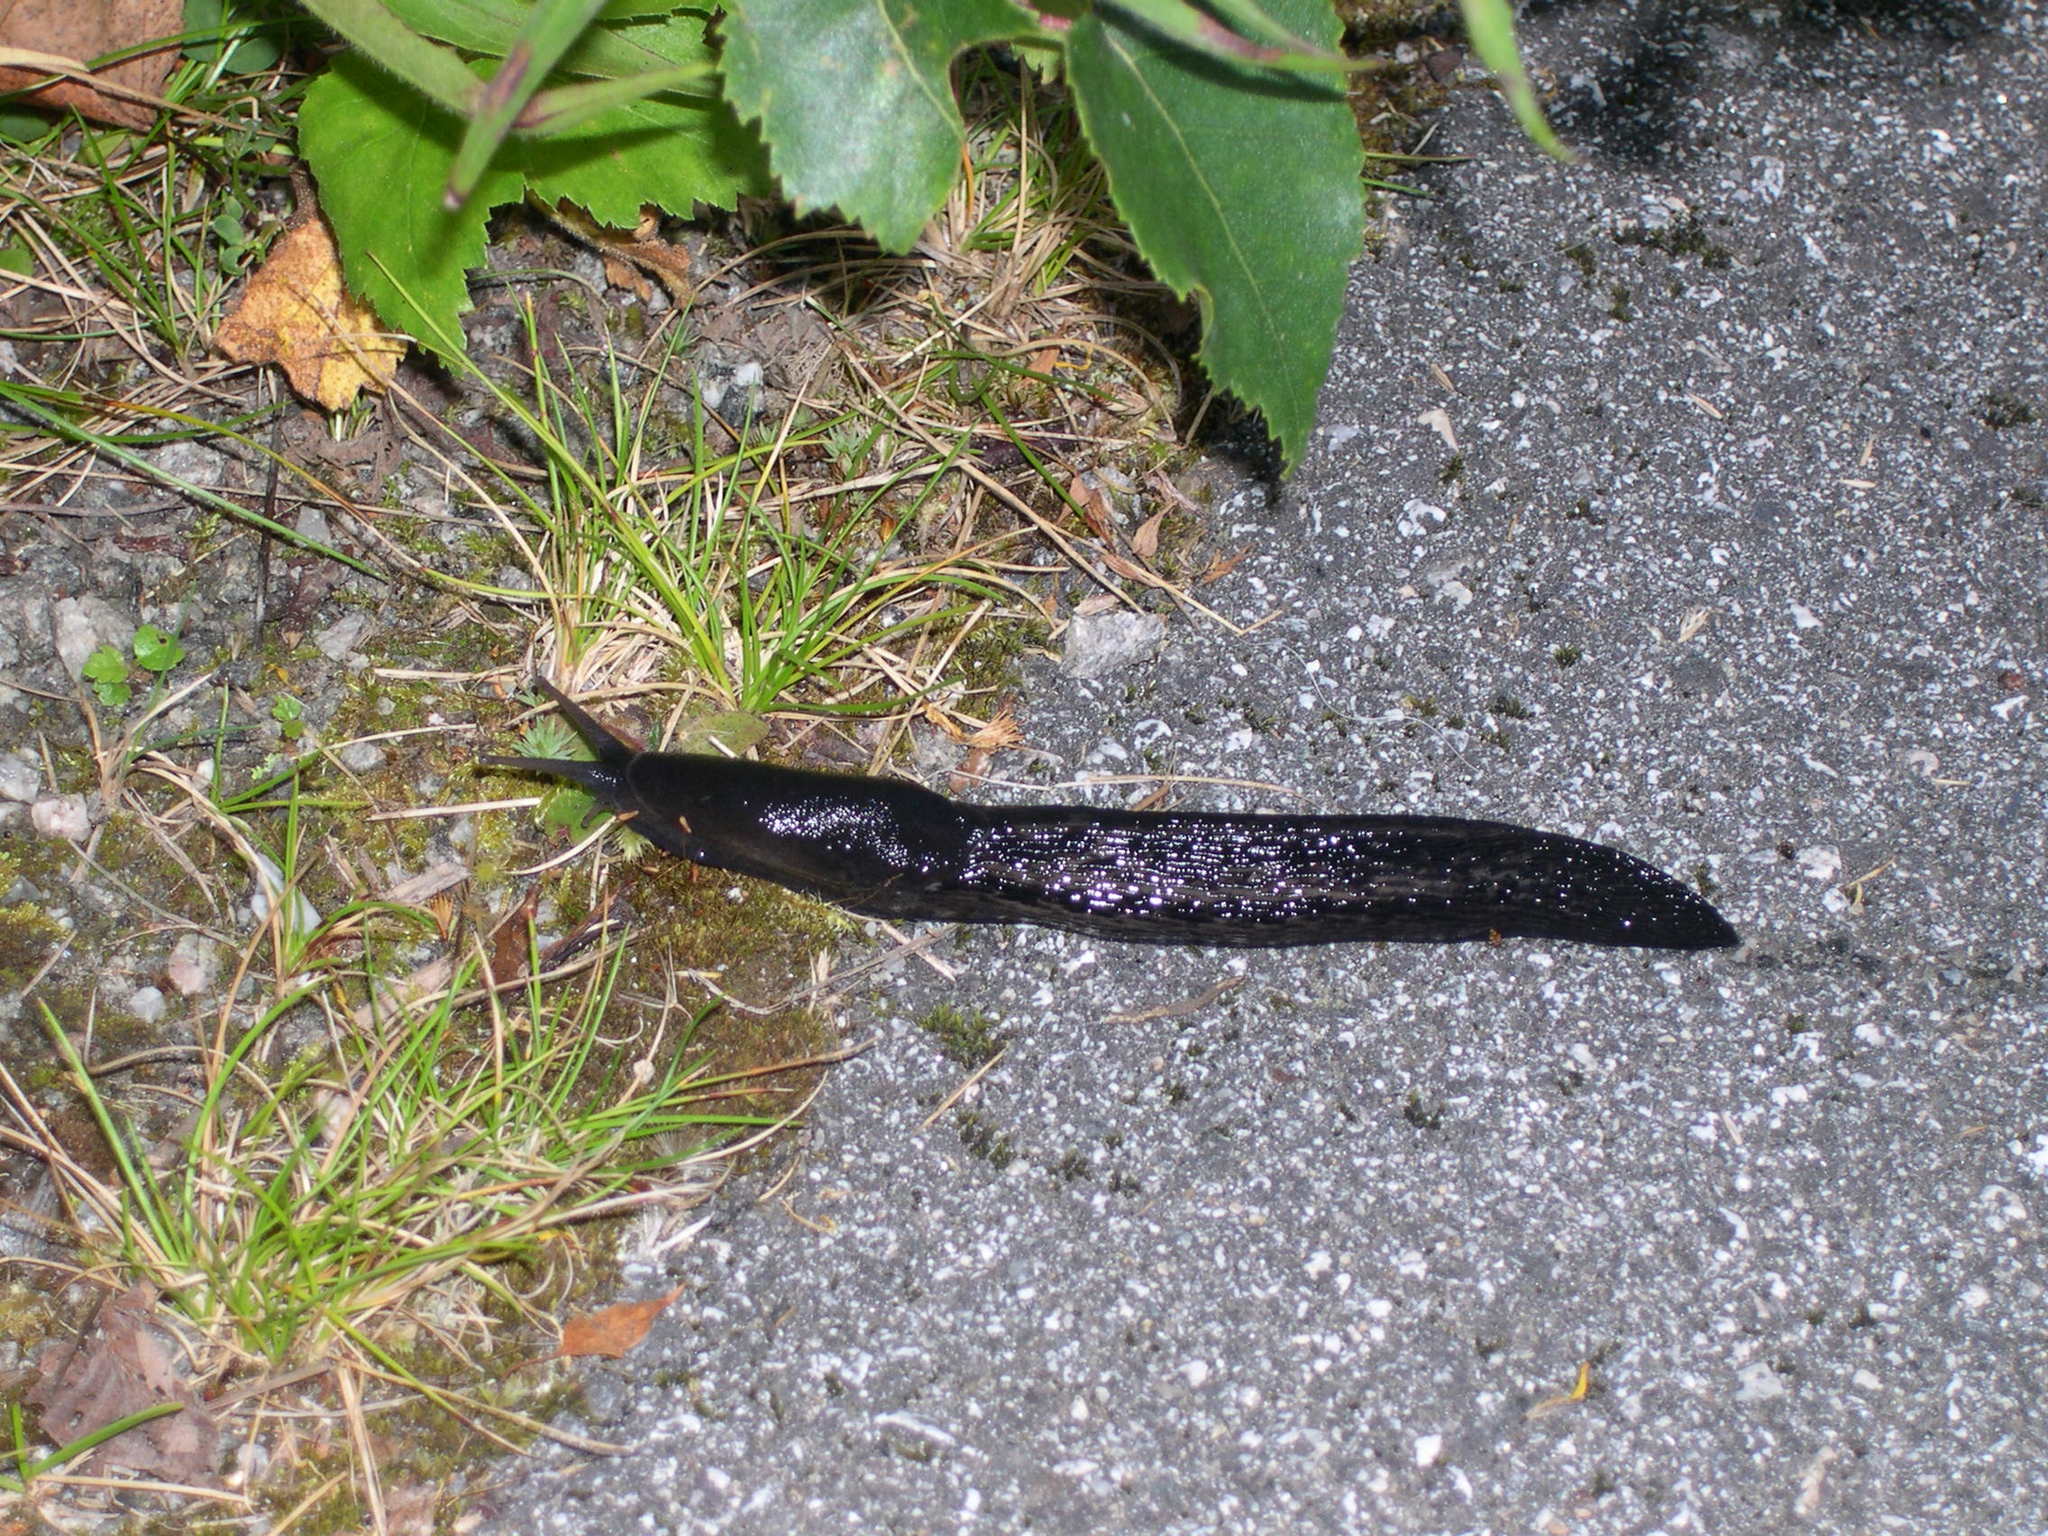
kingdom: Animalia
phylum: Mollusca
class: Gastropoda
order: Stylommatophora
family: Limacidae
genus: Limax
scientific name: Limax cinereoniger
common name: Ash-black slug
